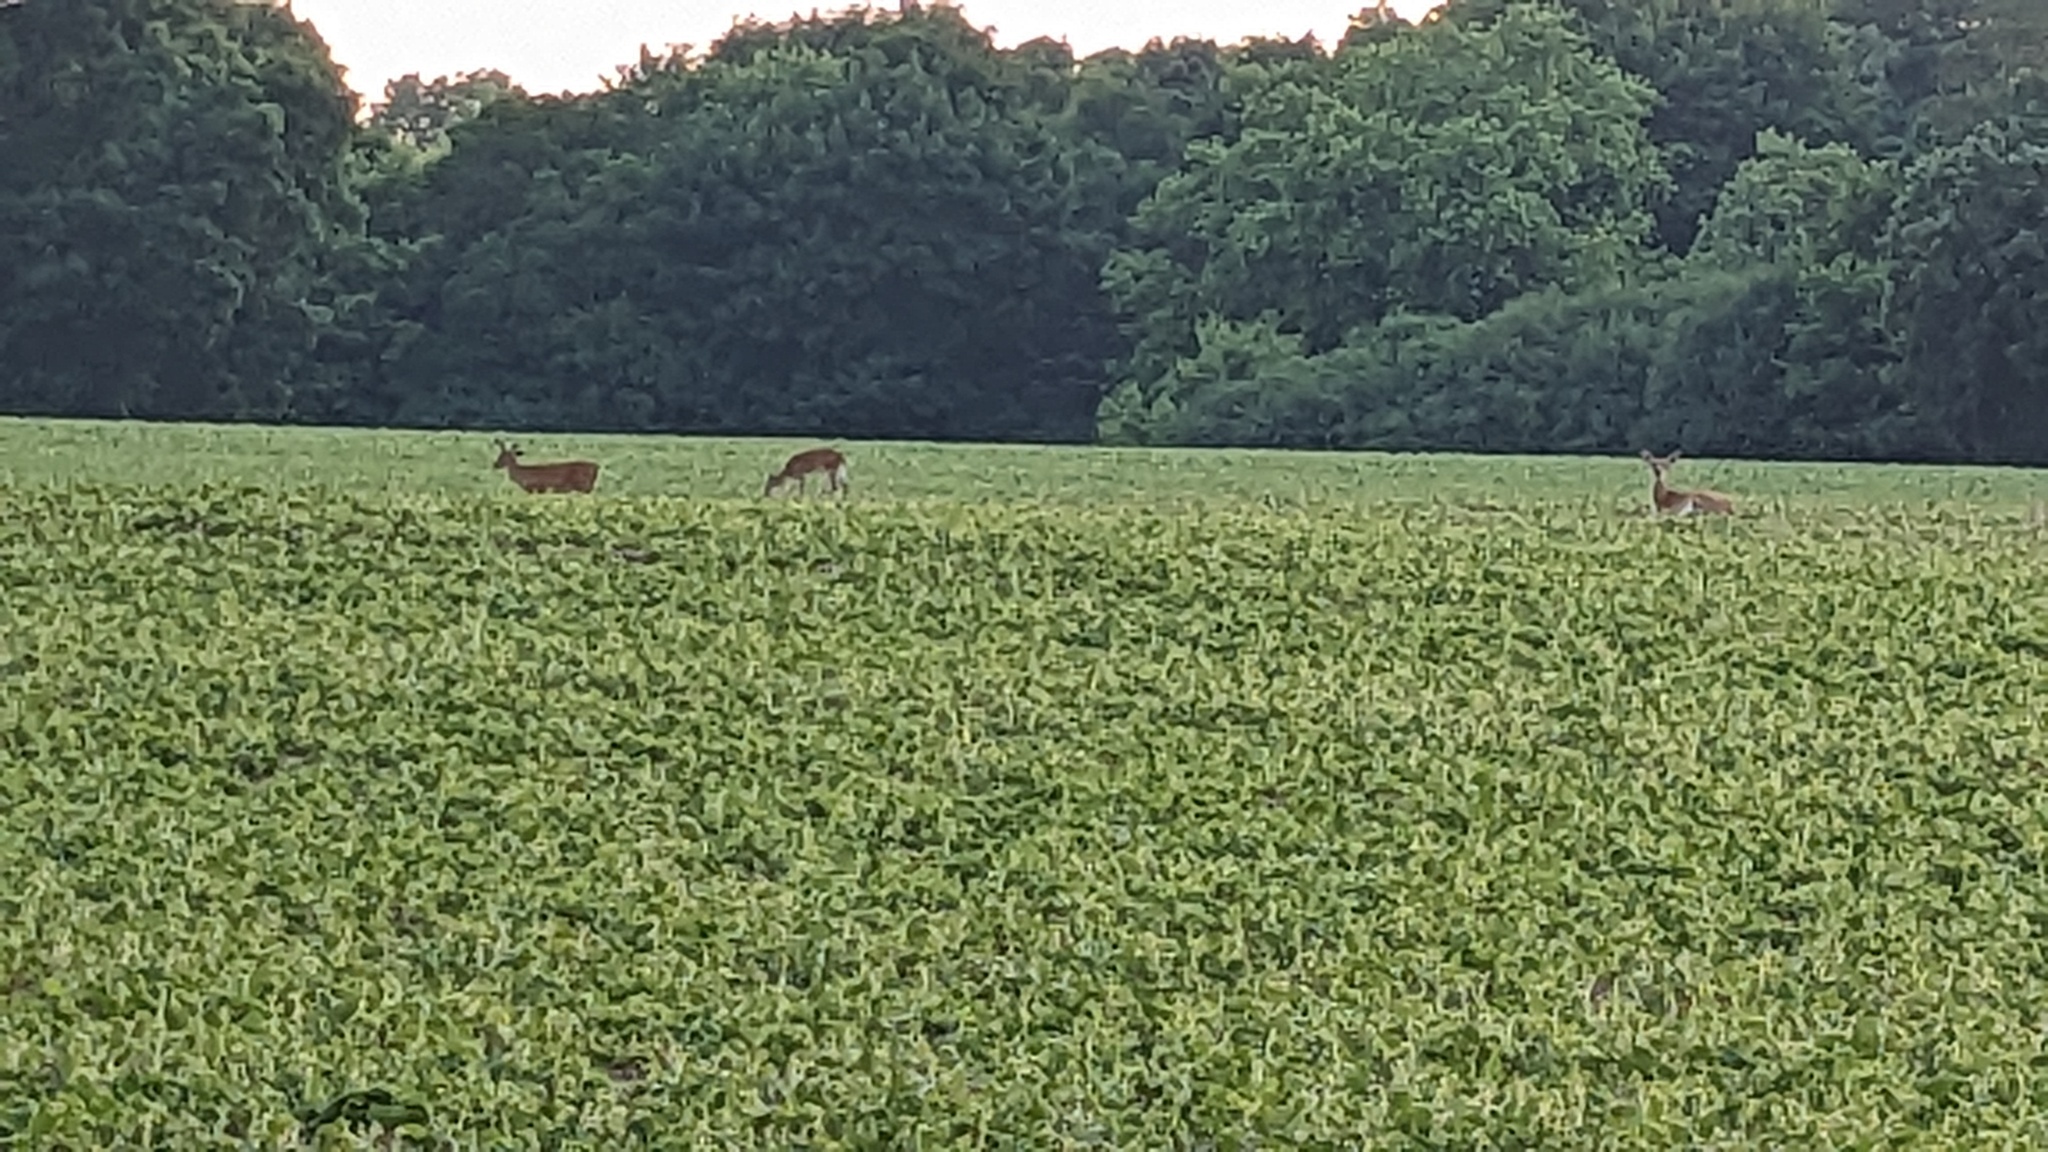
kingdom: Animalia
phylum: Chordata
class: Mammalia
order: Artiodactyla
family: Cervidae
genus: Odocoileus
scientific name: Odocoileus virginianus
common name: White-tailed deer
